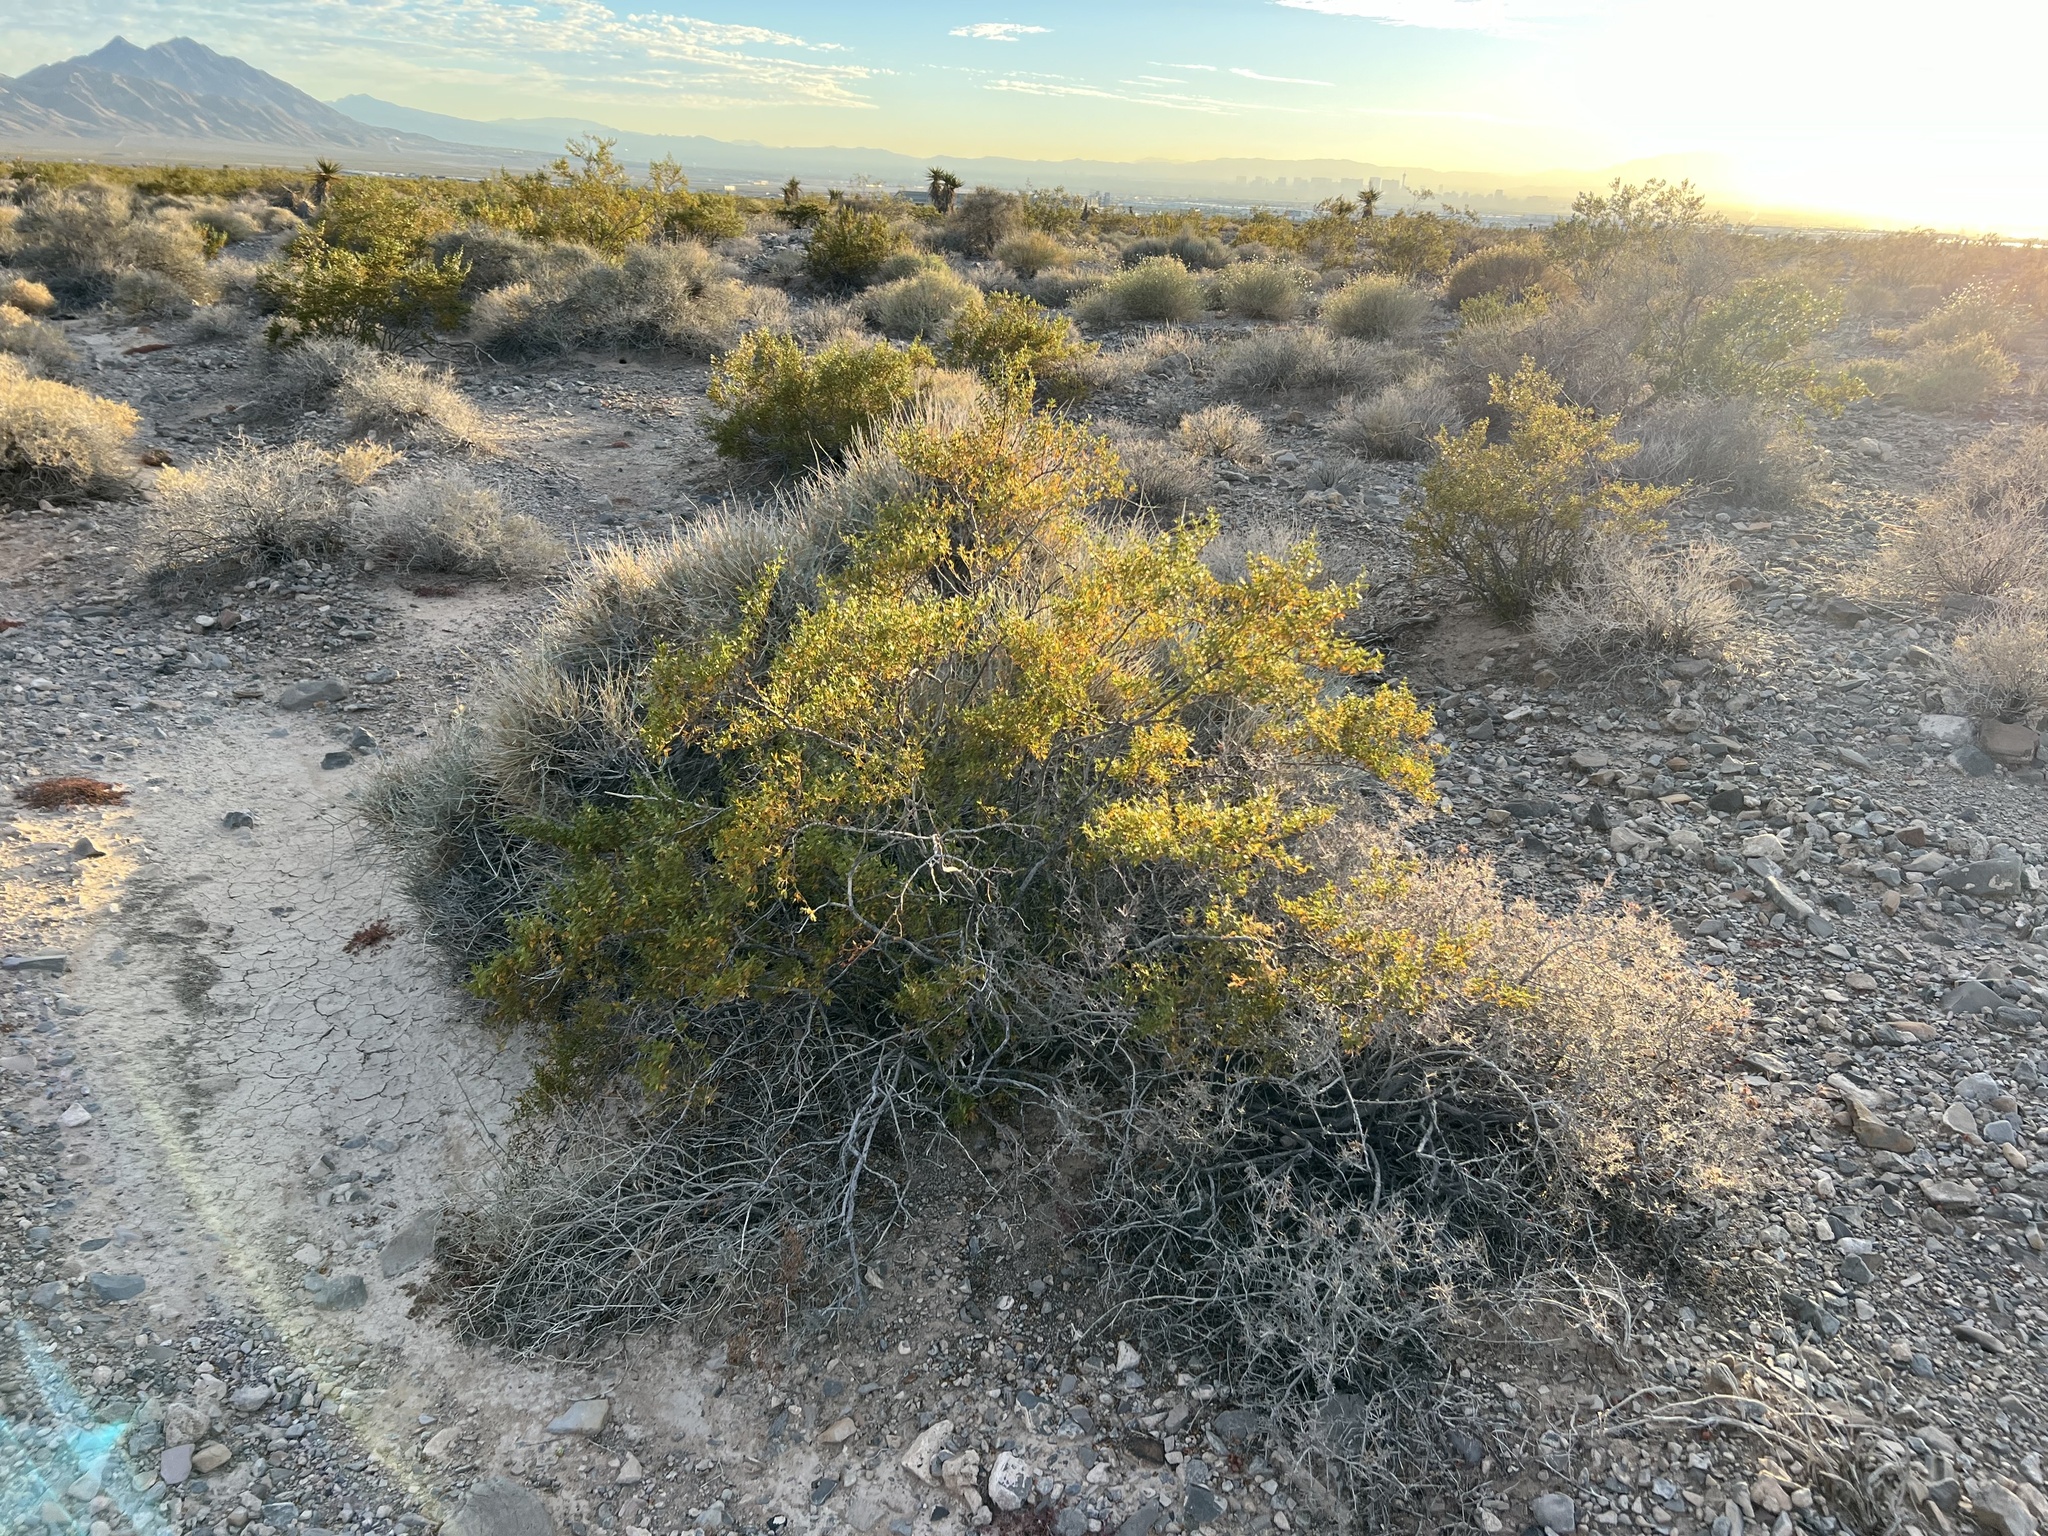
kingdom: Plantae
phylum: Tracheophyta
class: Magnoliopsida
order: Zygophyllales
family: Zygophyllaceae
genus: Larrea
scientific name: Larrea tridentata
